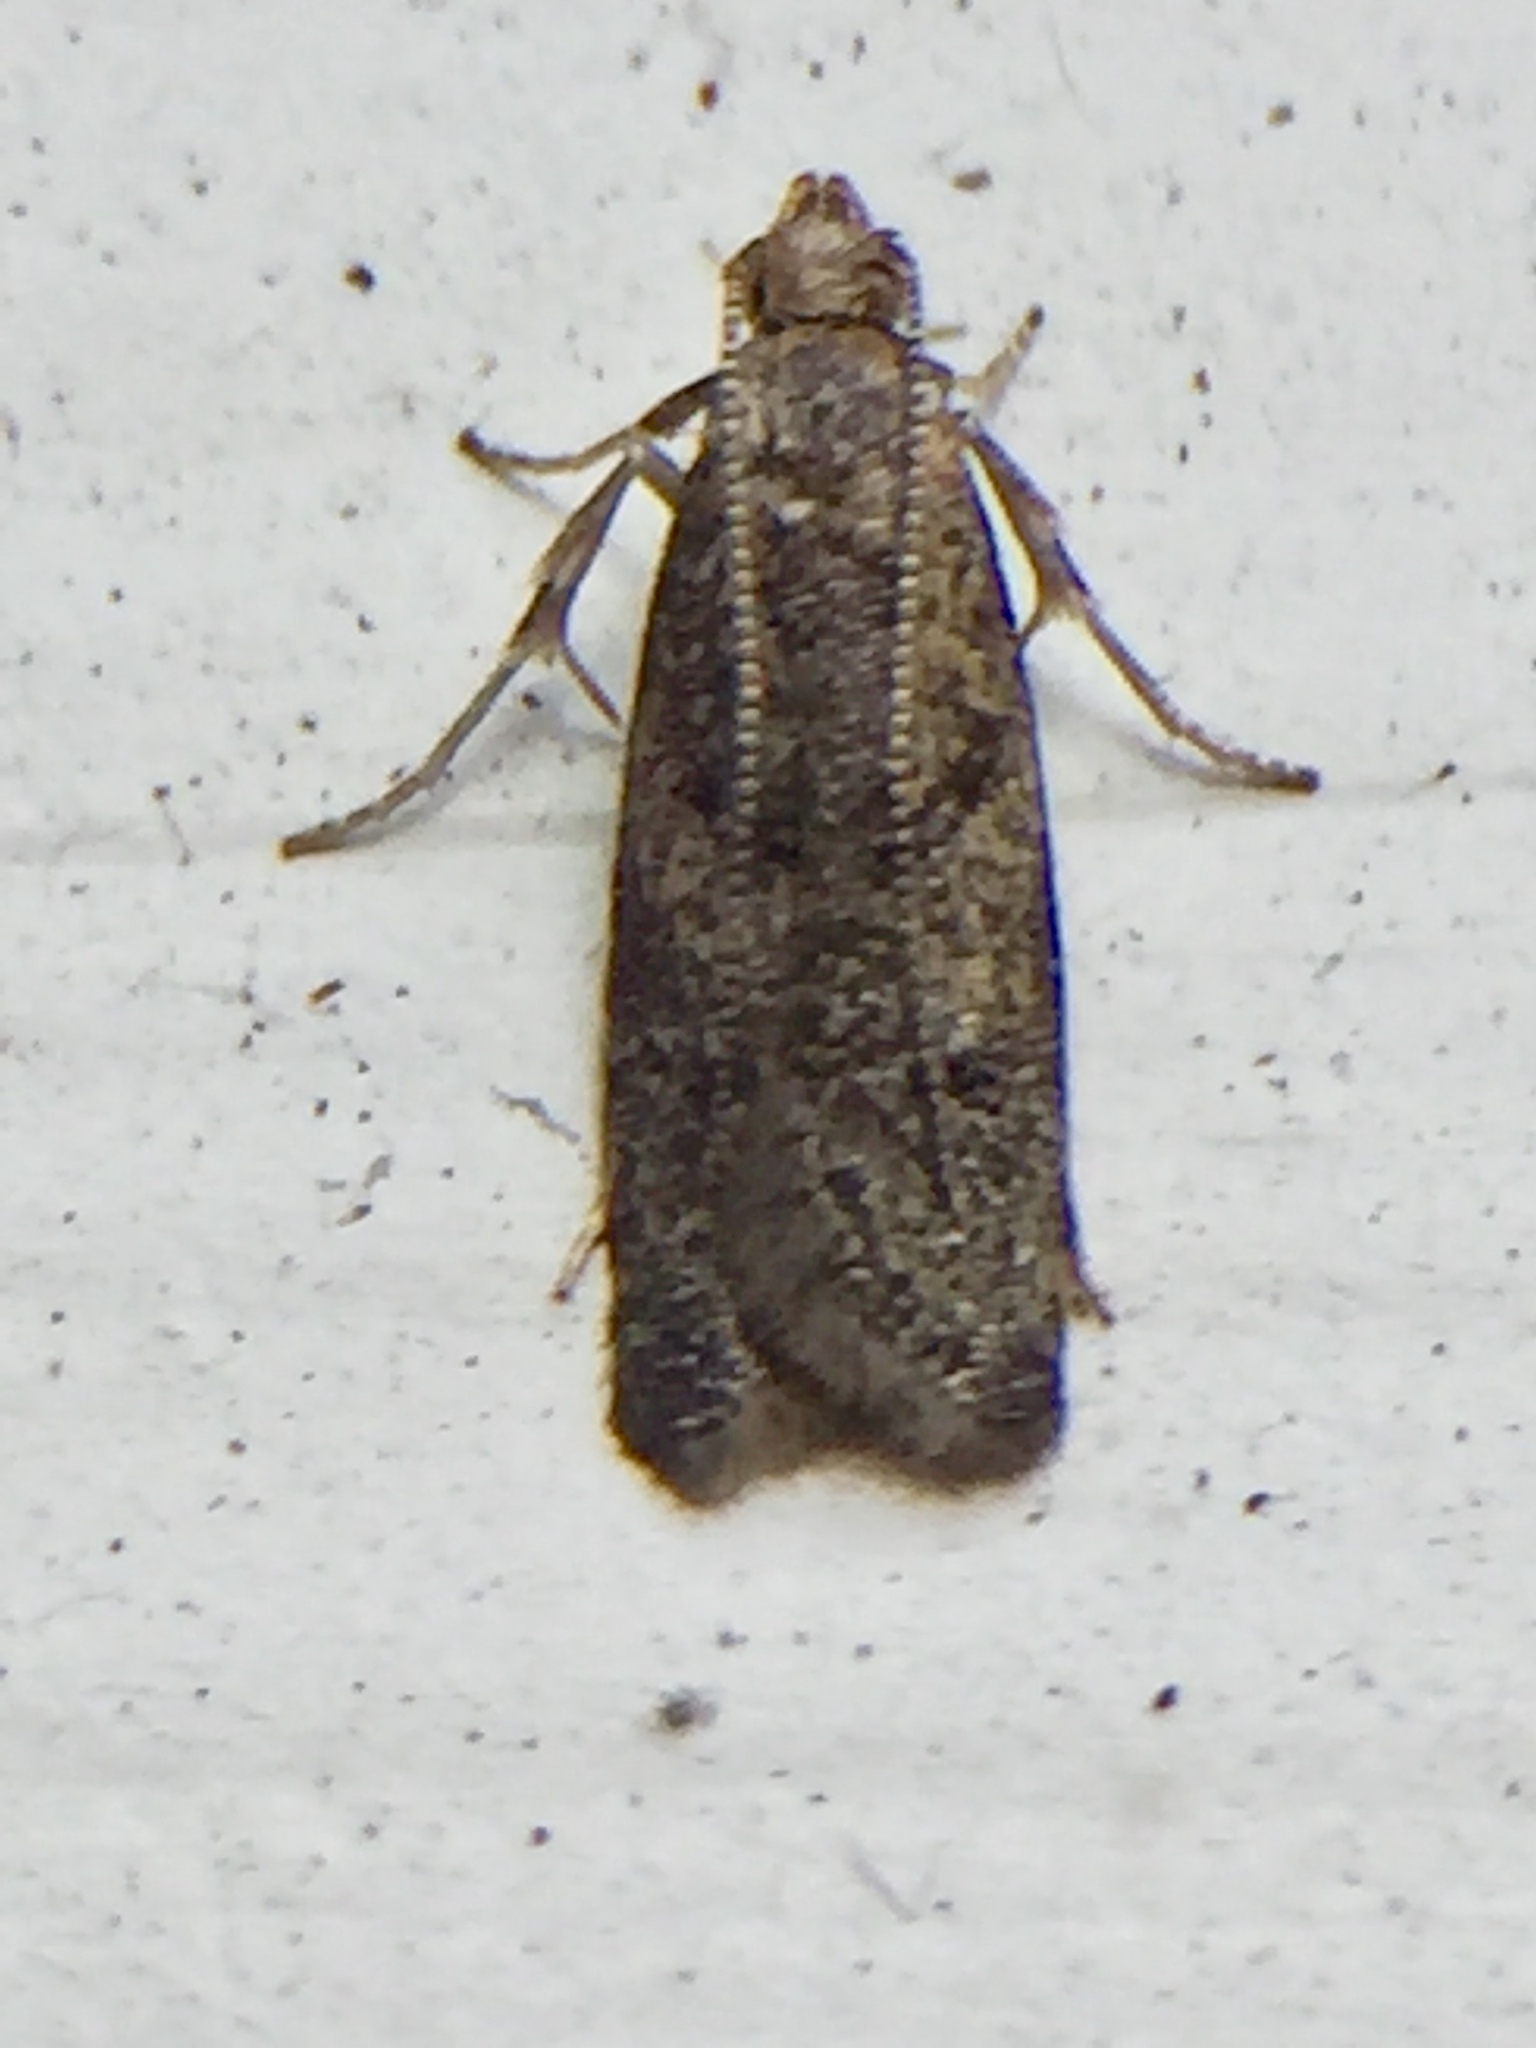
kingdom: Animalia
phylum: Arthropoda
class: Insecta
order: Lepidoptera
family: Oecophoridae
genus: Gymnobathra
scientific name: Gymnobathra tholodella
